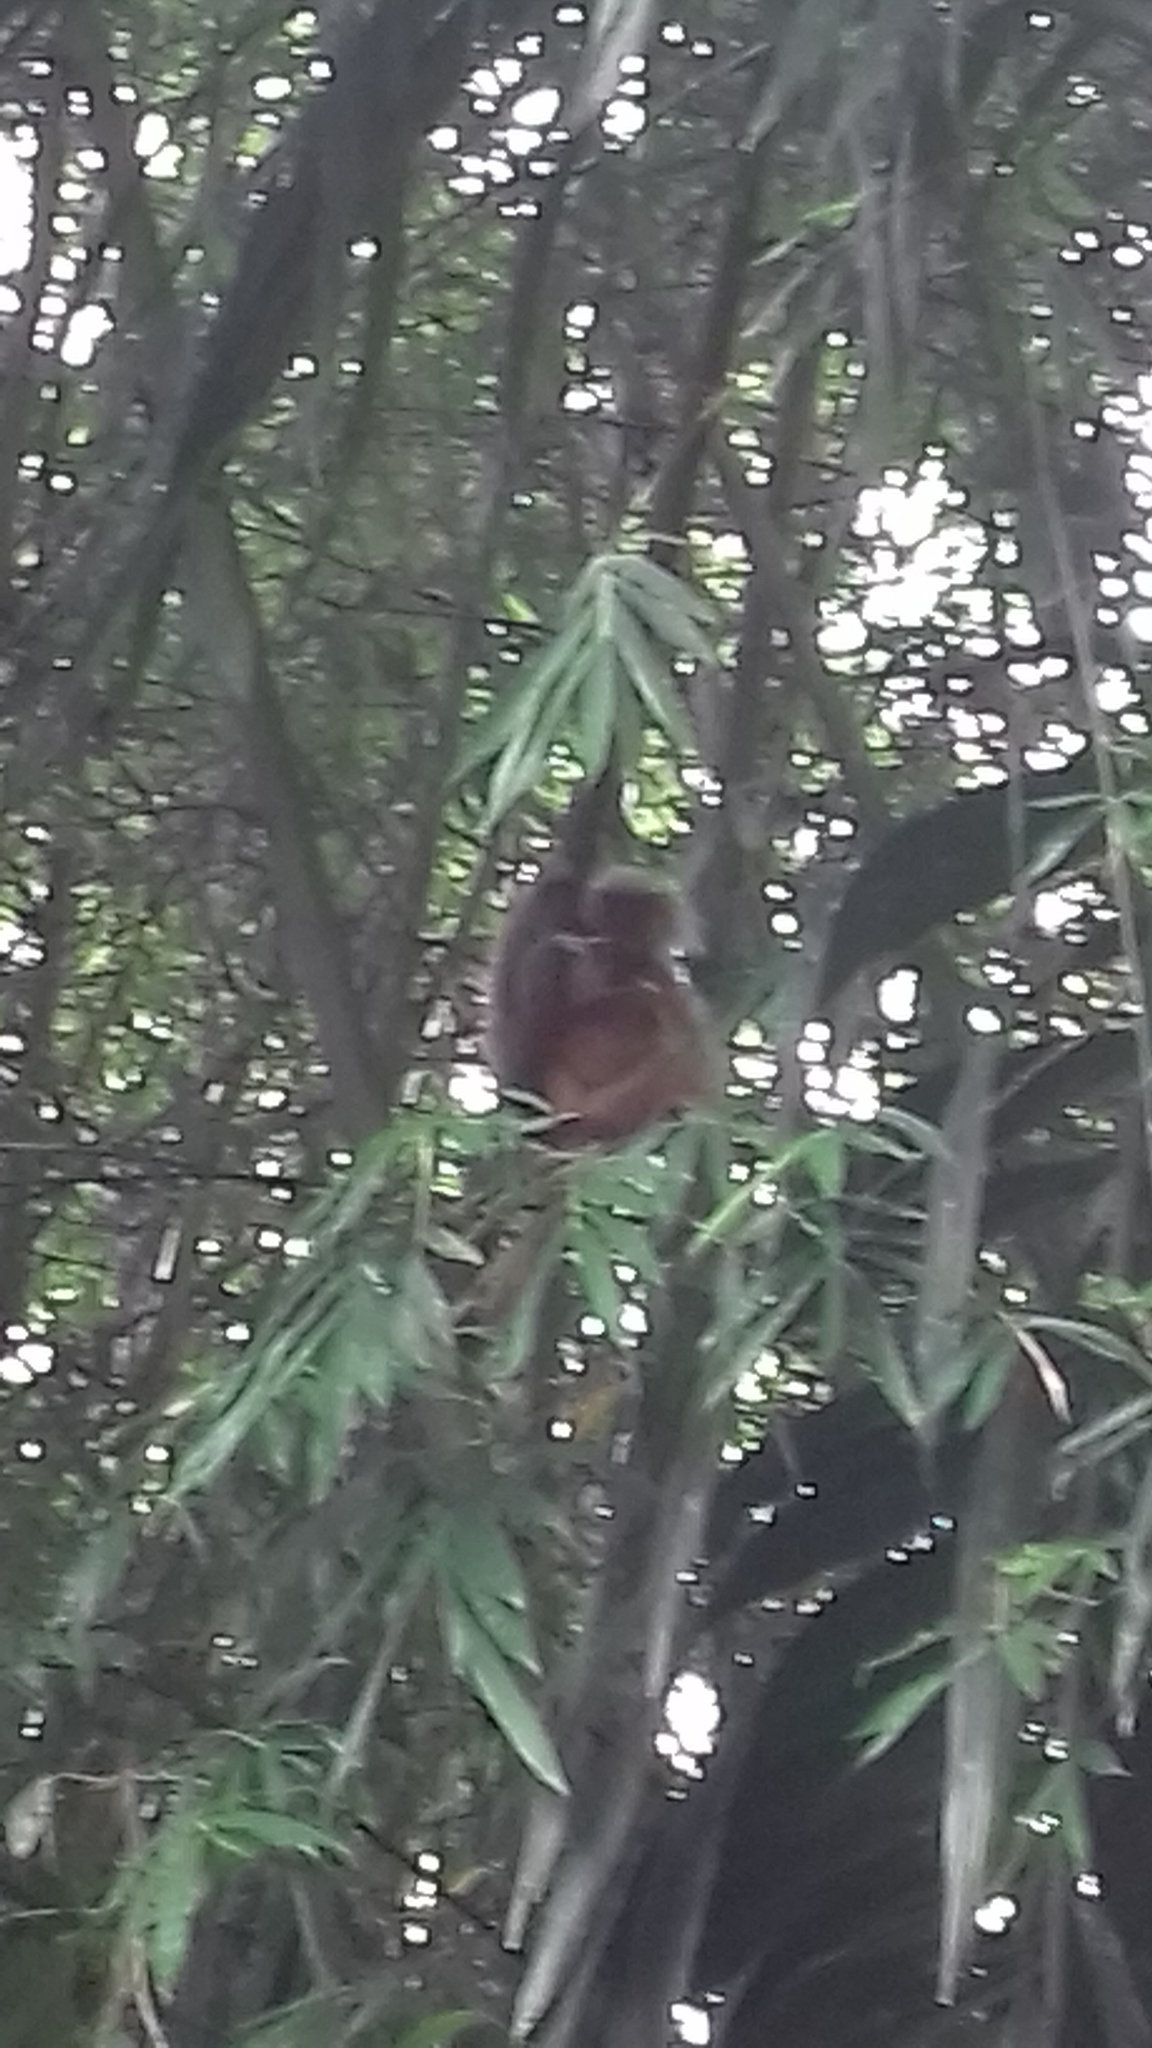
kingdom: Animalia
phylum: Chordata
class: Mammalia
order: Primates
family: Cercopithecidae
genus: Trachypithecus
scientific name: Trachypithecus geei
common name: Gee's golden langur
